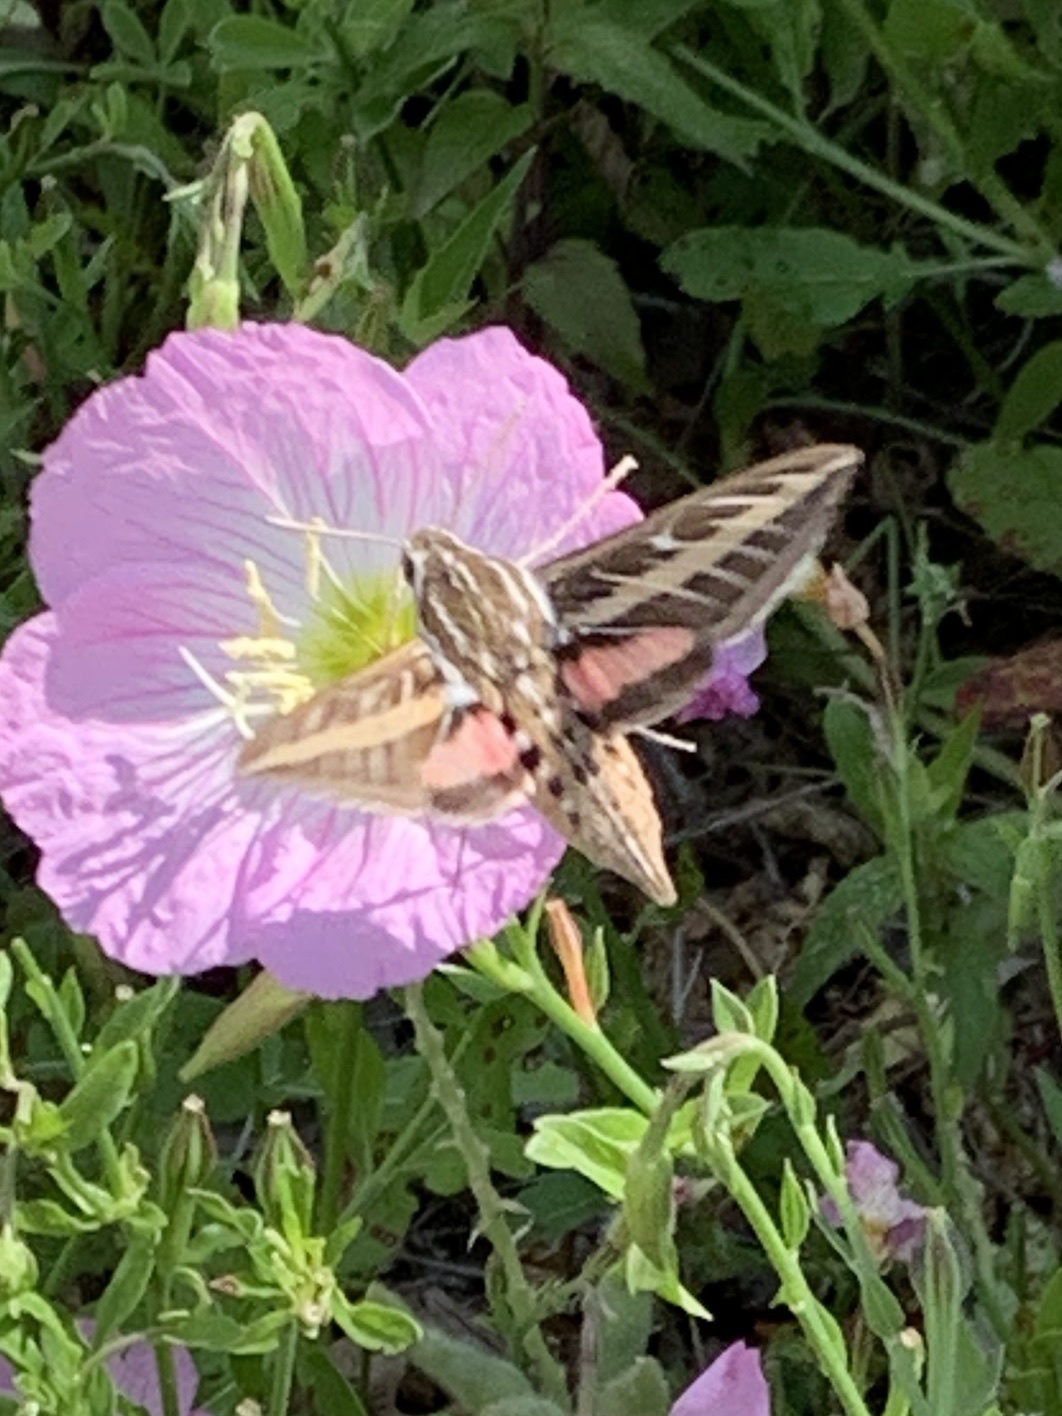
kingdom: Animalia
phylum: Arthropoda
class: Insecta
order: Lepidoptera
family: Sphingidae
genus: Hyles
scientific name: Hyles lineata
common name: White-lined sphinx
